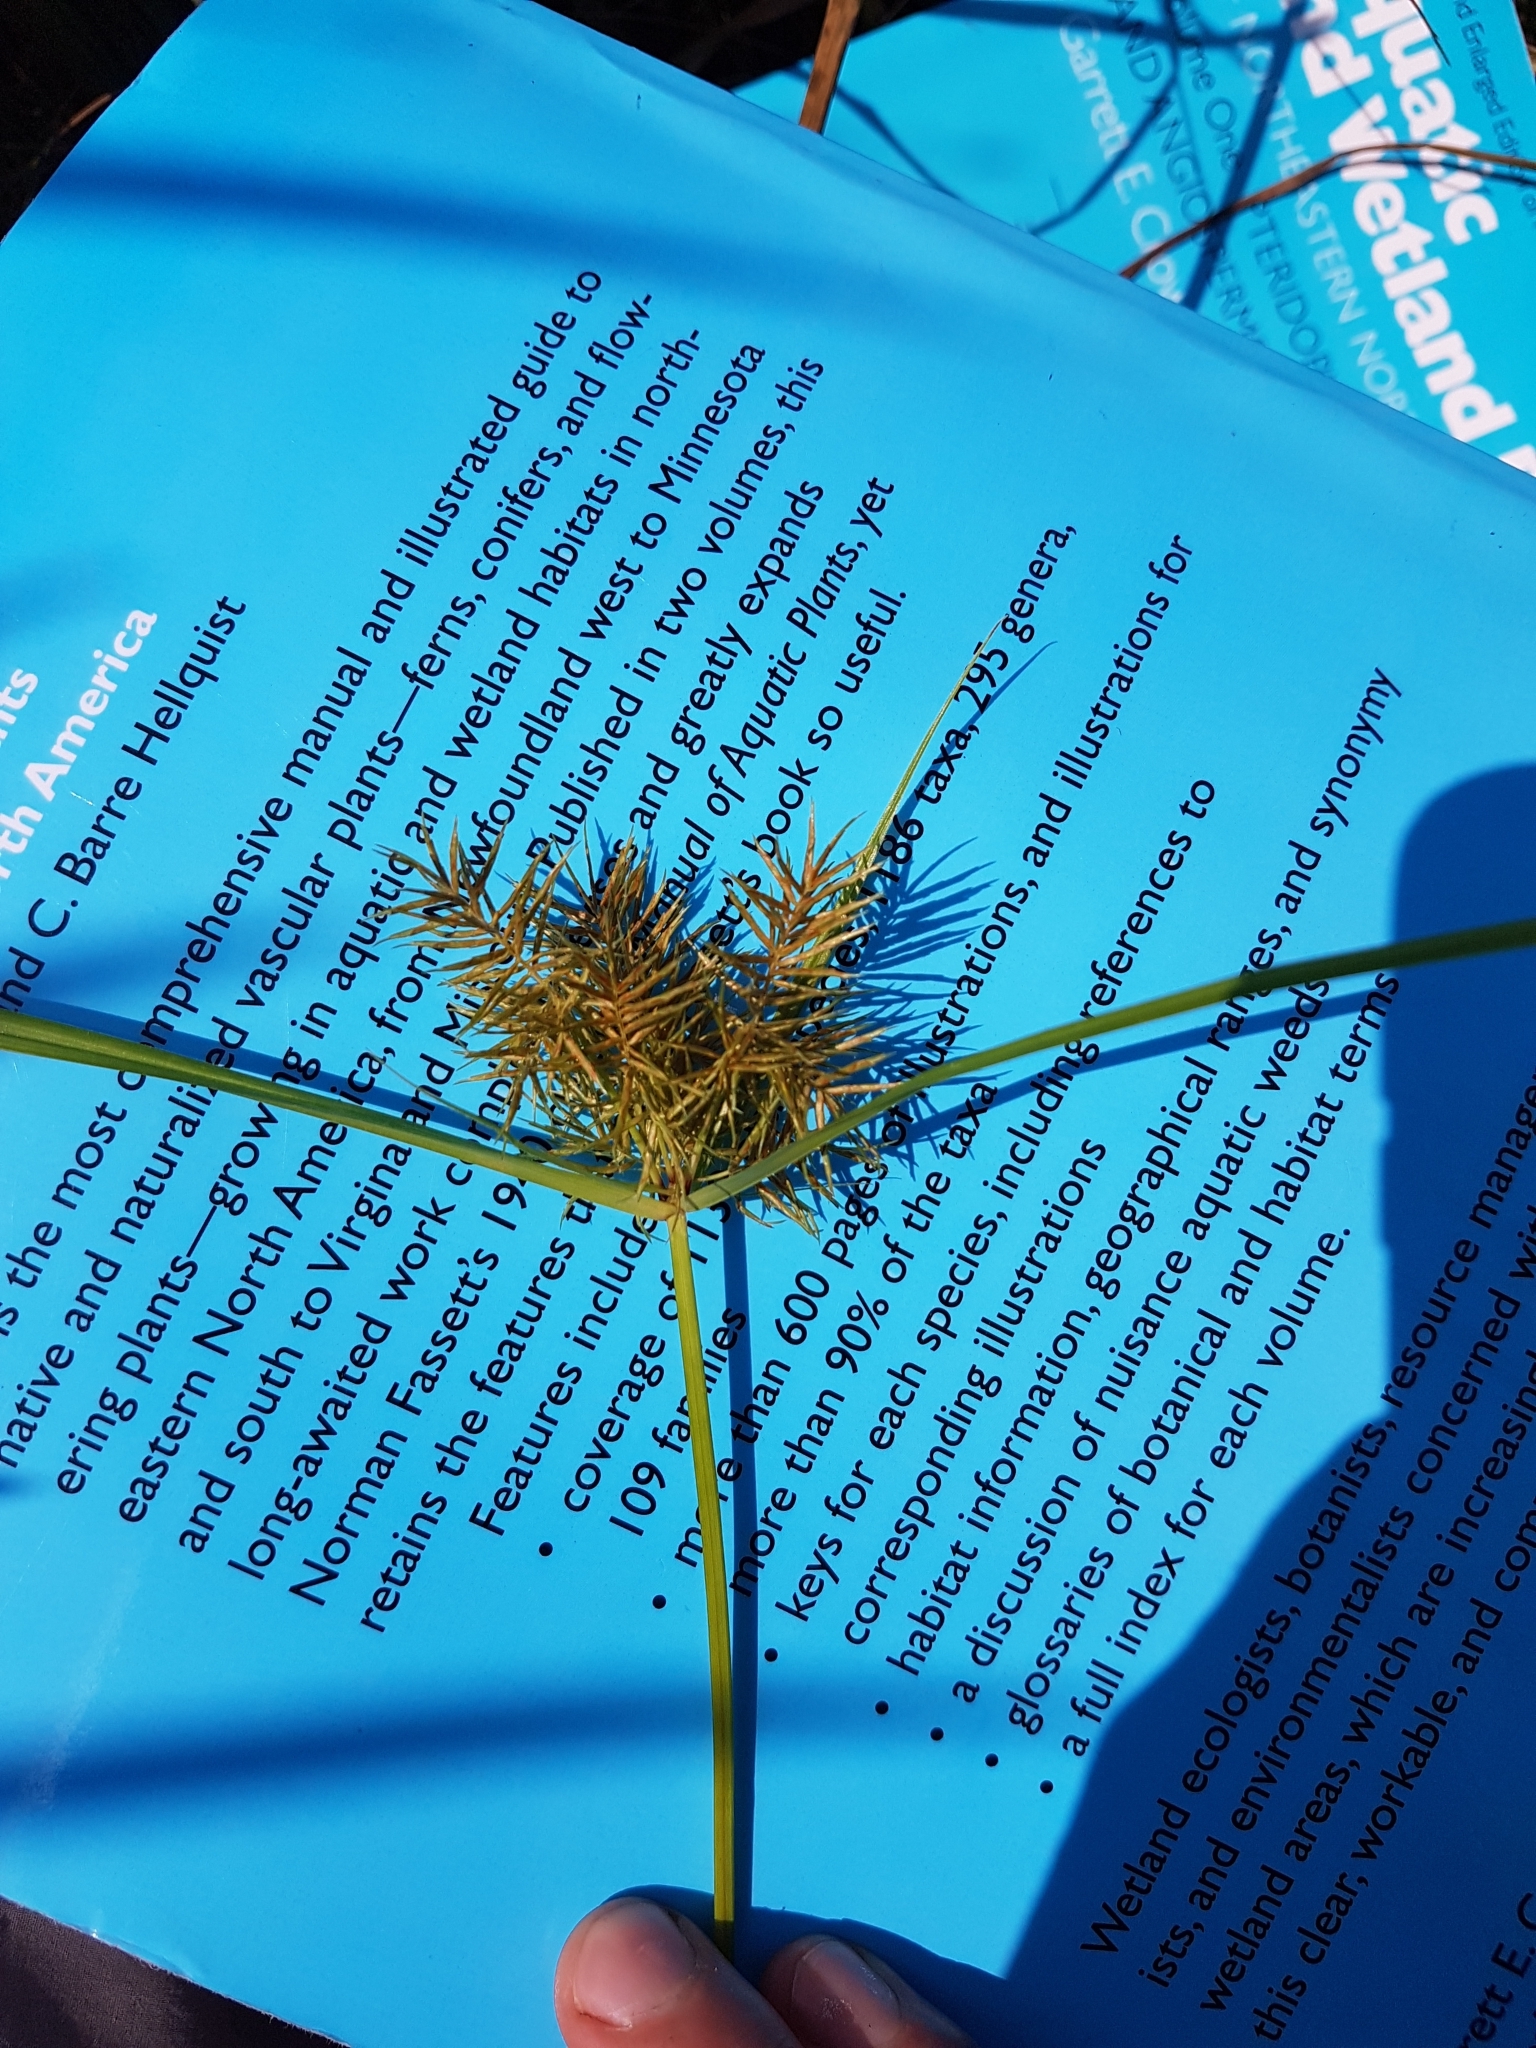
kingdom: Plantae
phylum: Tracheophyta
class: Liliopsida
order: Poales
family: Cyperaceae
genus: Cyperus
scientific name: Cyperus odoratus
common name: Fragrant flatsedge
